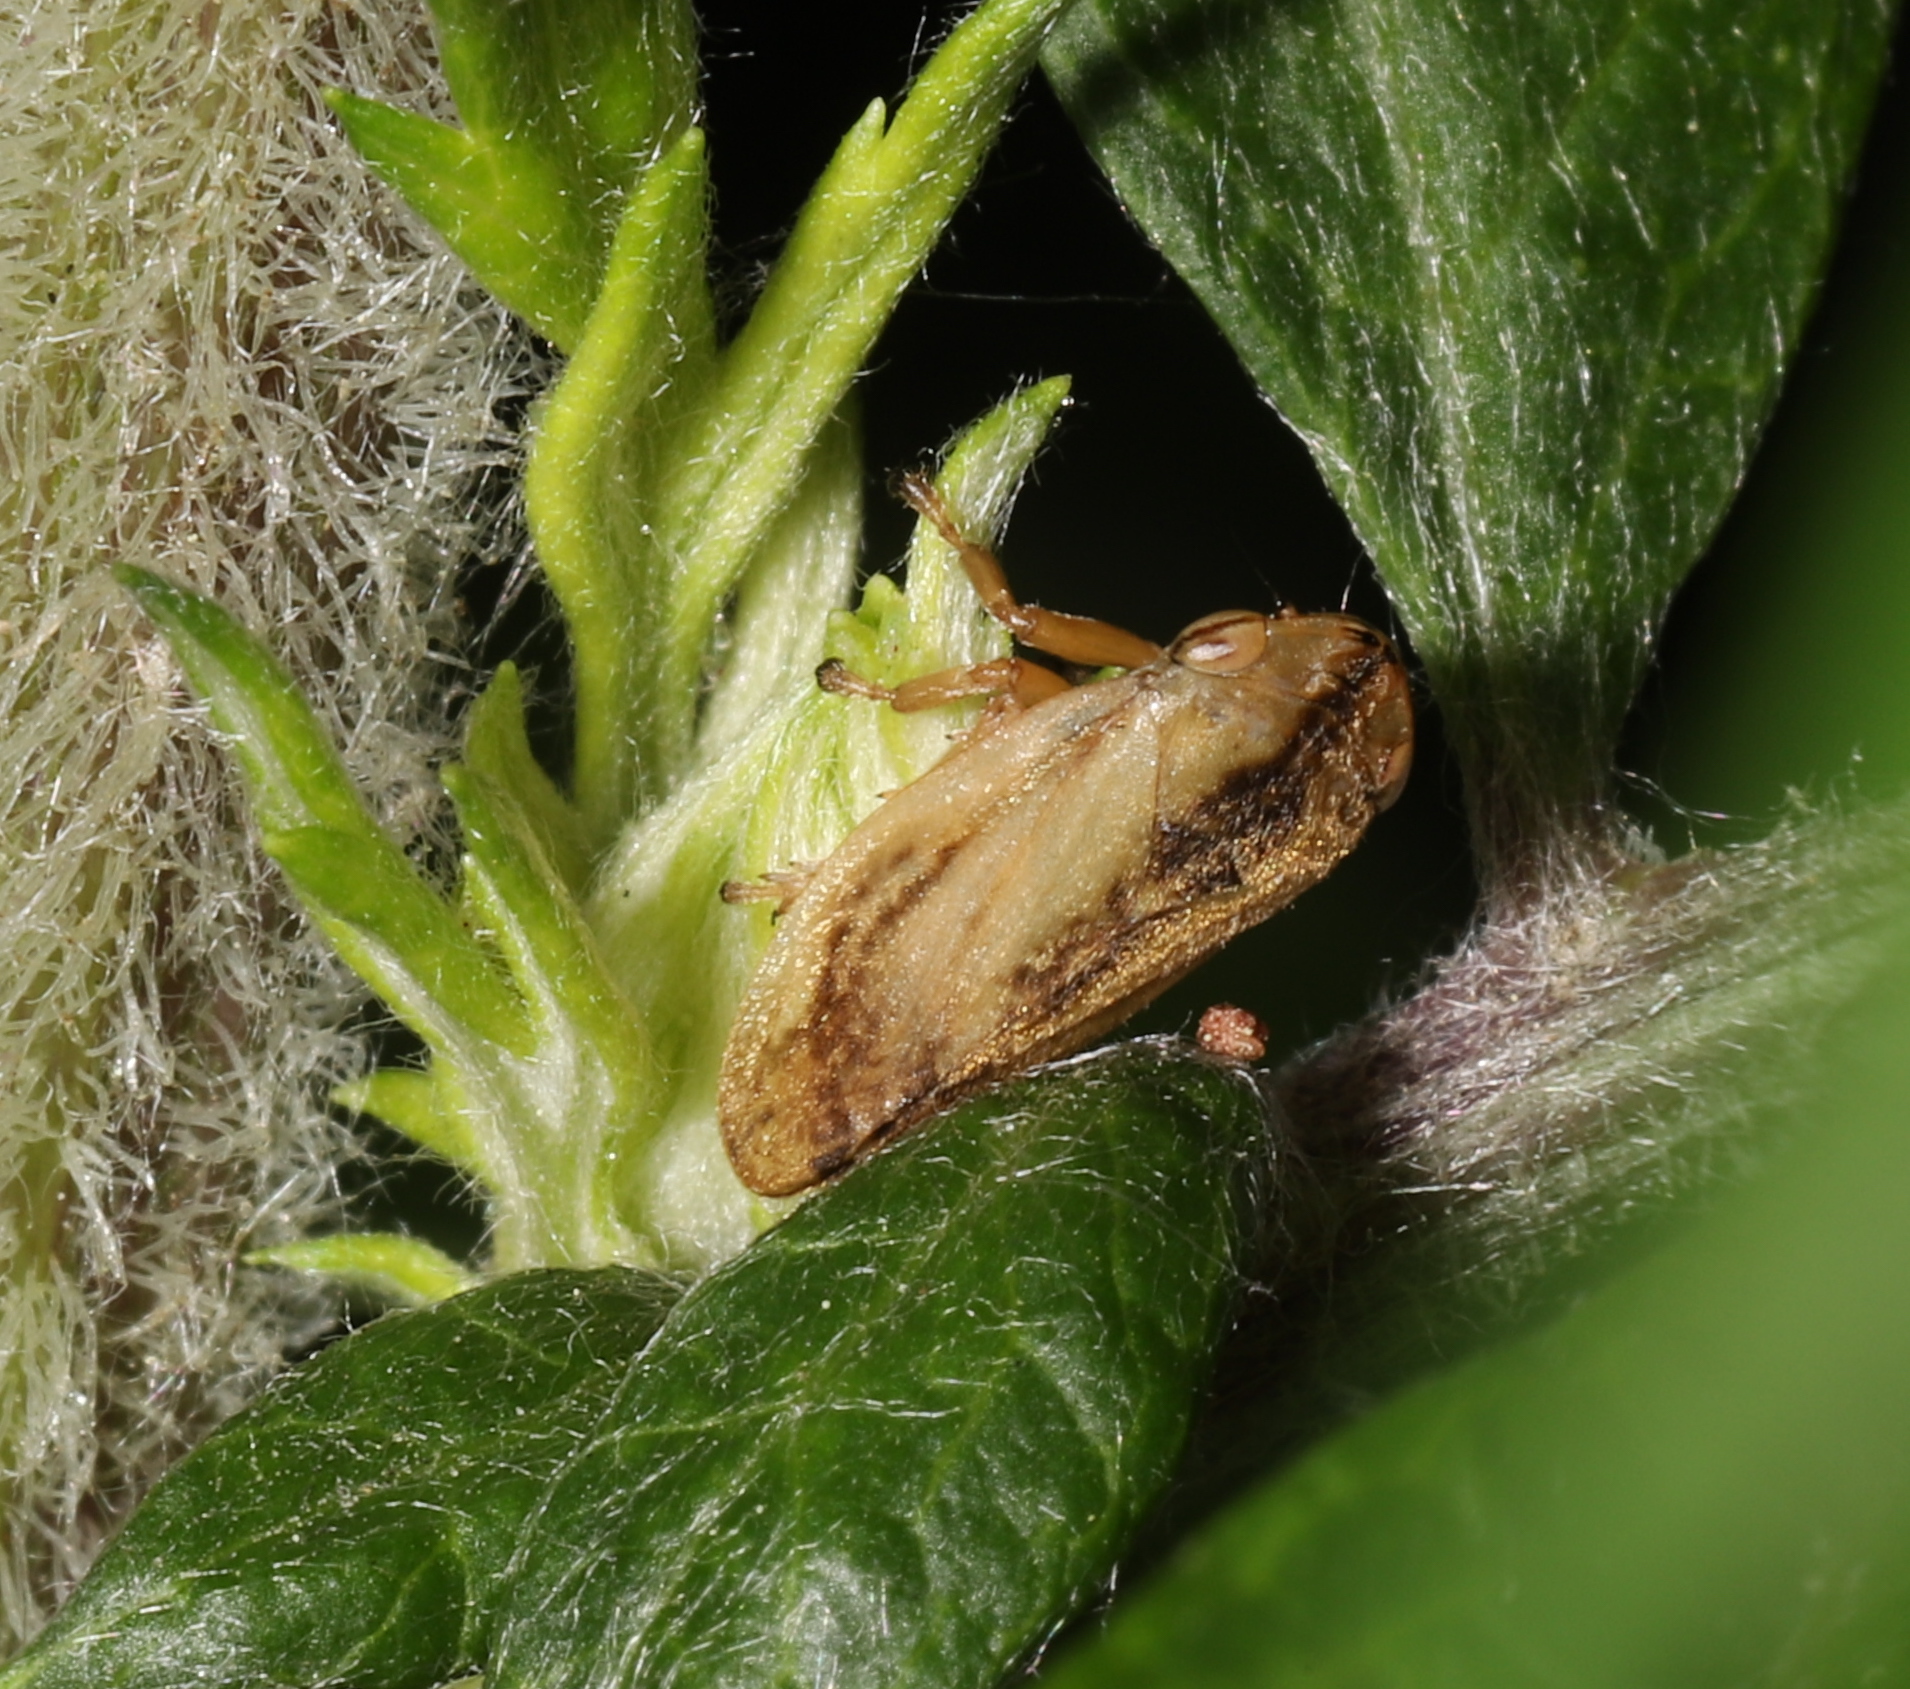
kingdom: Animalia
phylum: Arthropoda
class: Insecta
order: Hemiptera
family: Aphrophoridae
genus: Philaenus
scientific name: Philaenus spumarius
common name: Meadow spittlebug
